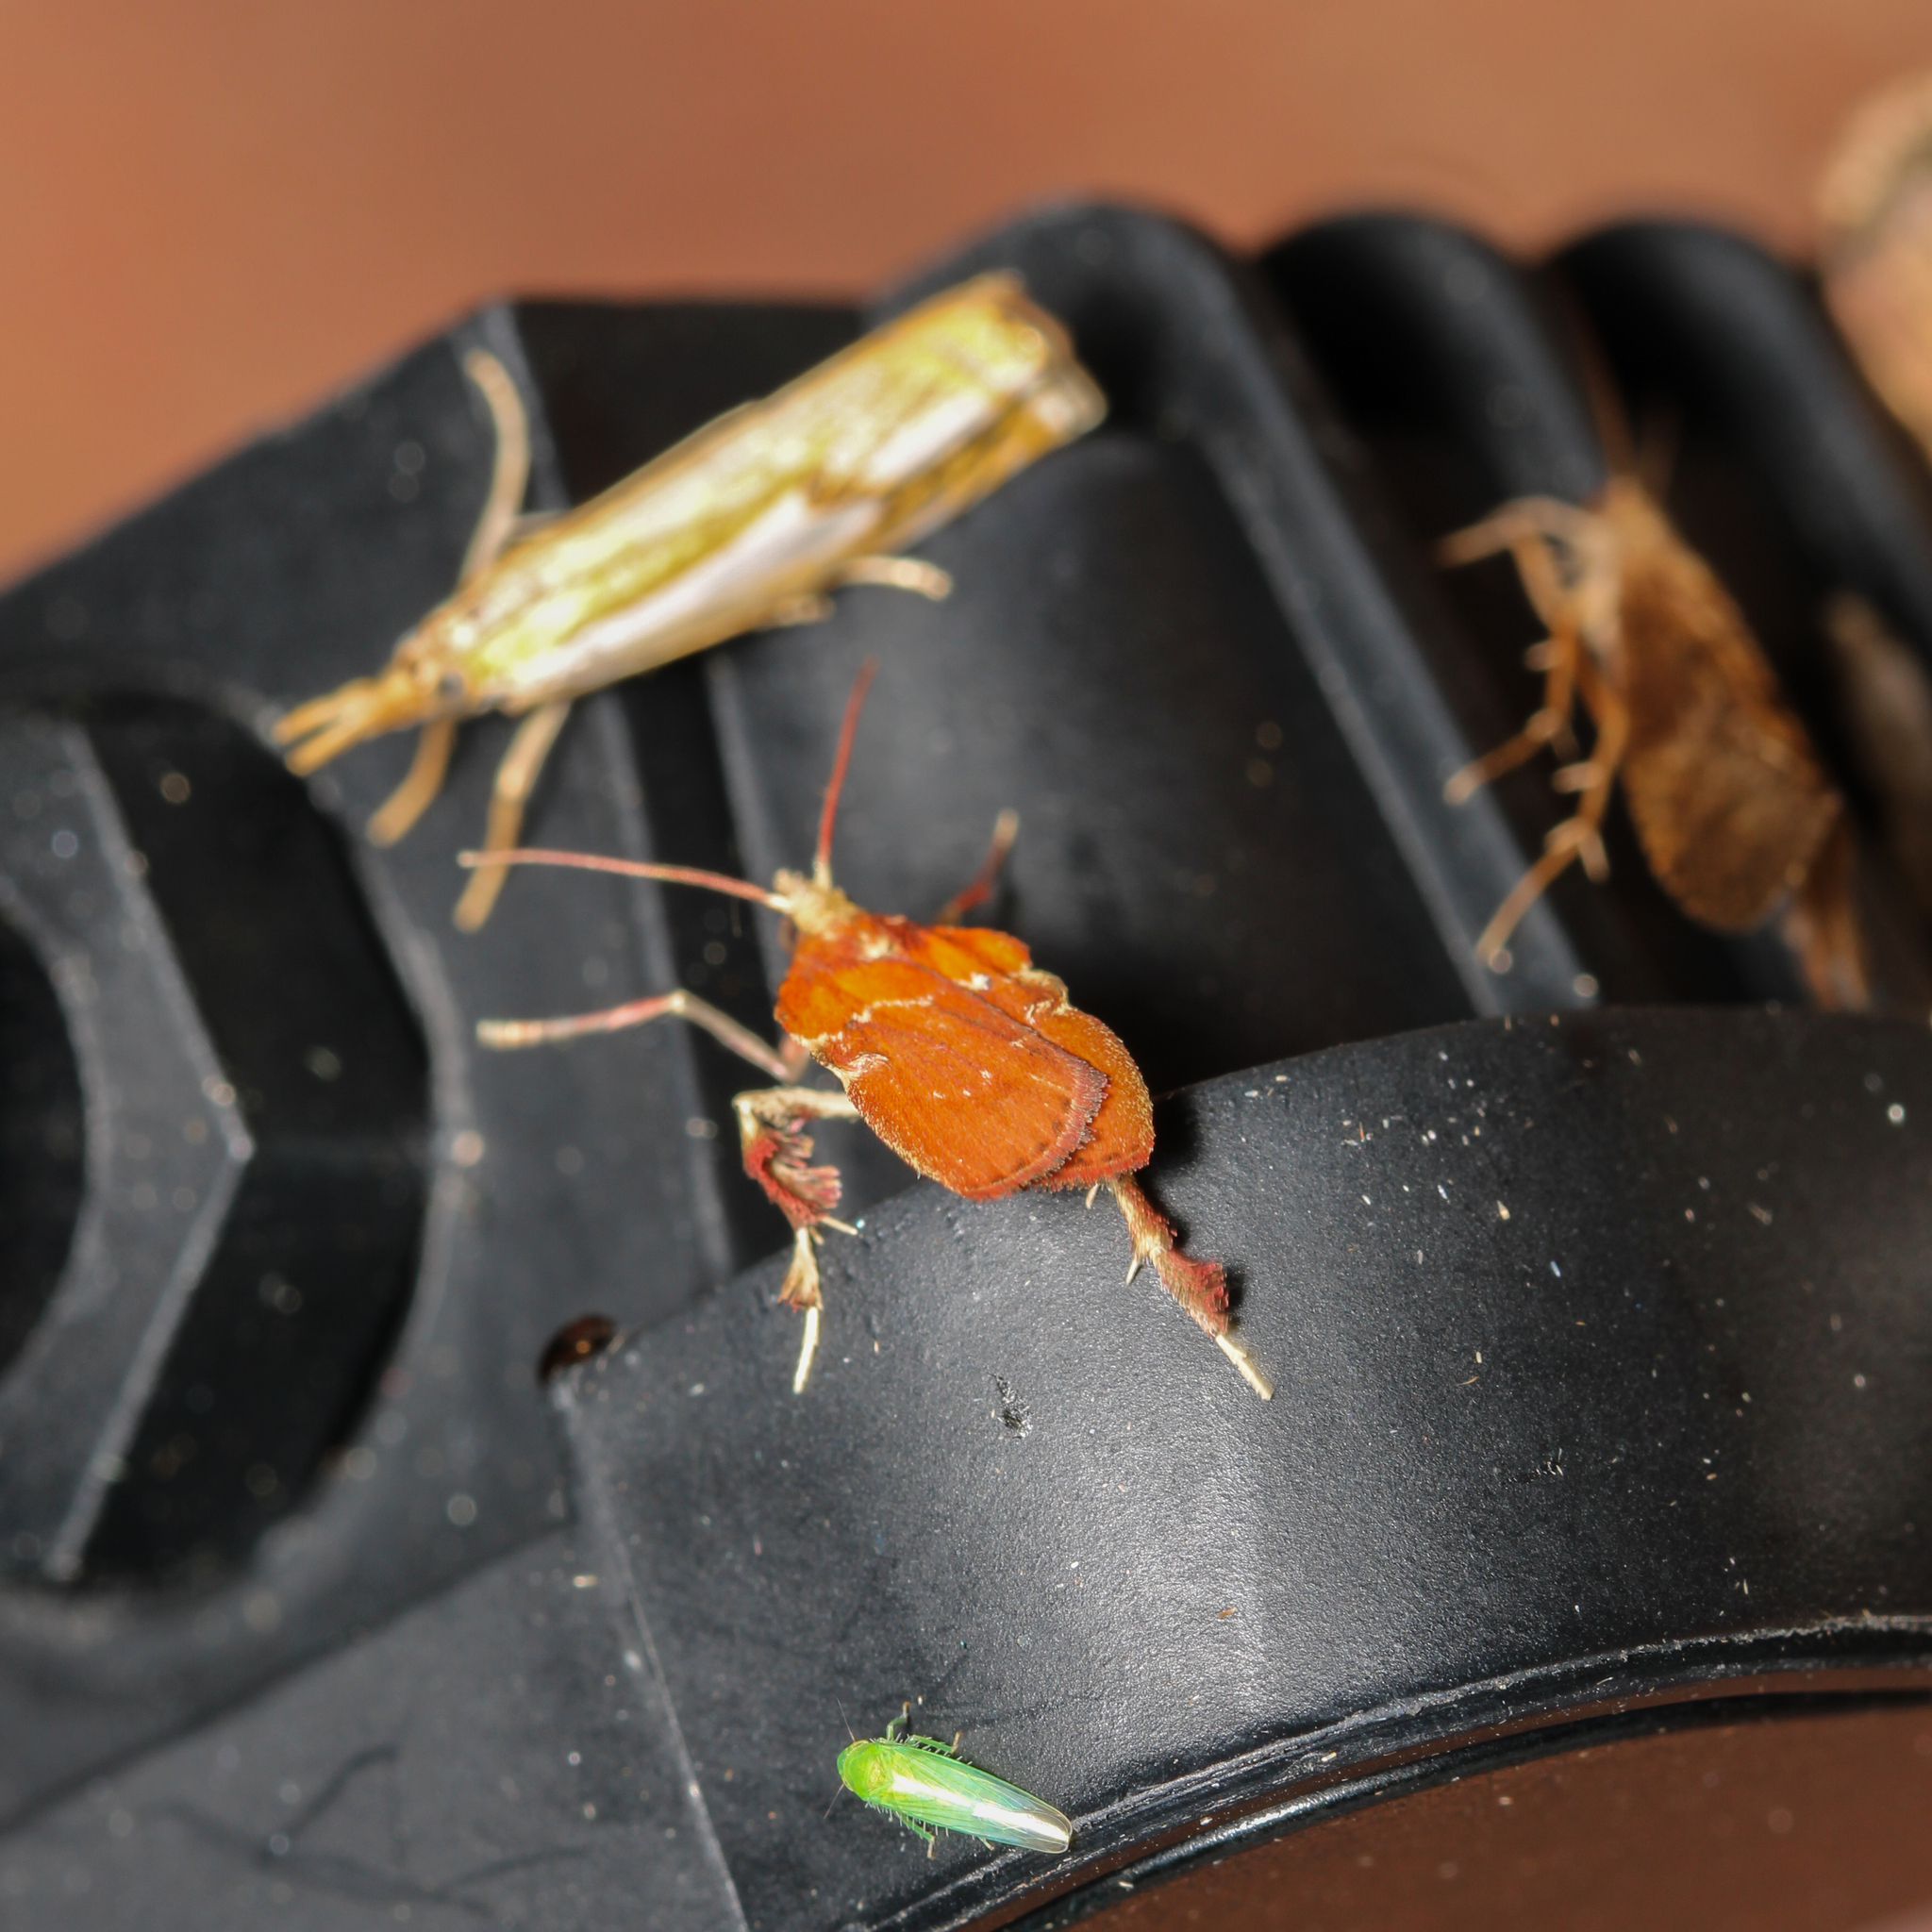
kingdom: Animalia
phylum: Arthropoda
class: Insecta
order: Lepidoptera
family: Pyralidae
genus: Galasa
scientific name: Galasa nigrinodis
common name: Boxwood leaftier moth
